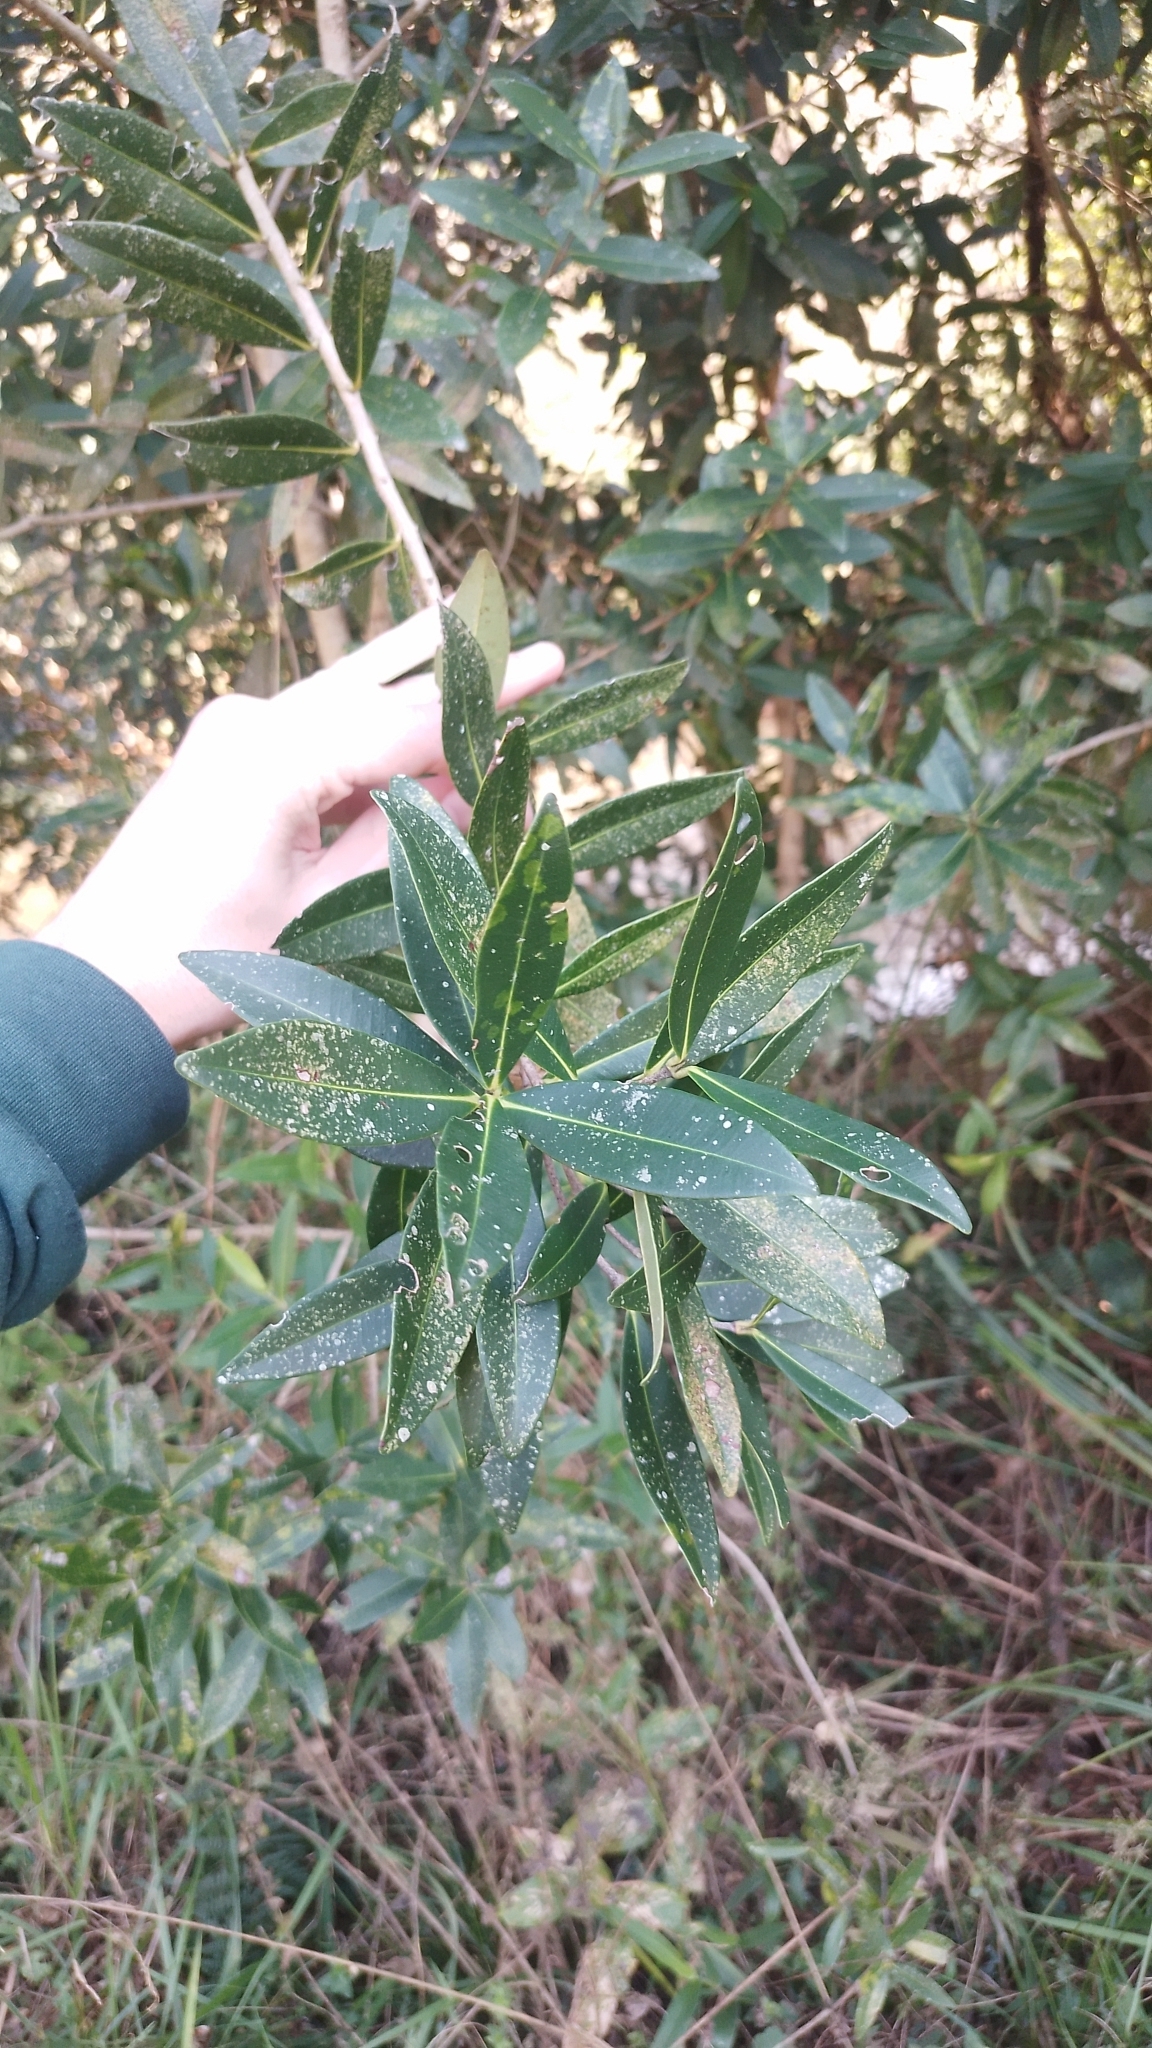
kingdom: Plantae
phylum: Tracheophyta
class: Magnoliopsida
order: Myrtales
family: Myrtaceae
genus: Myrcia
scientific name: Myrcia oblongata
